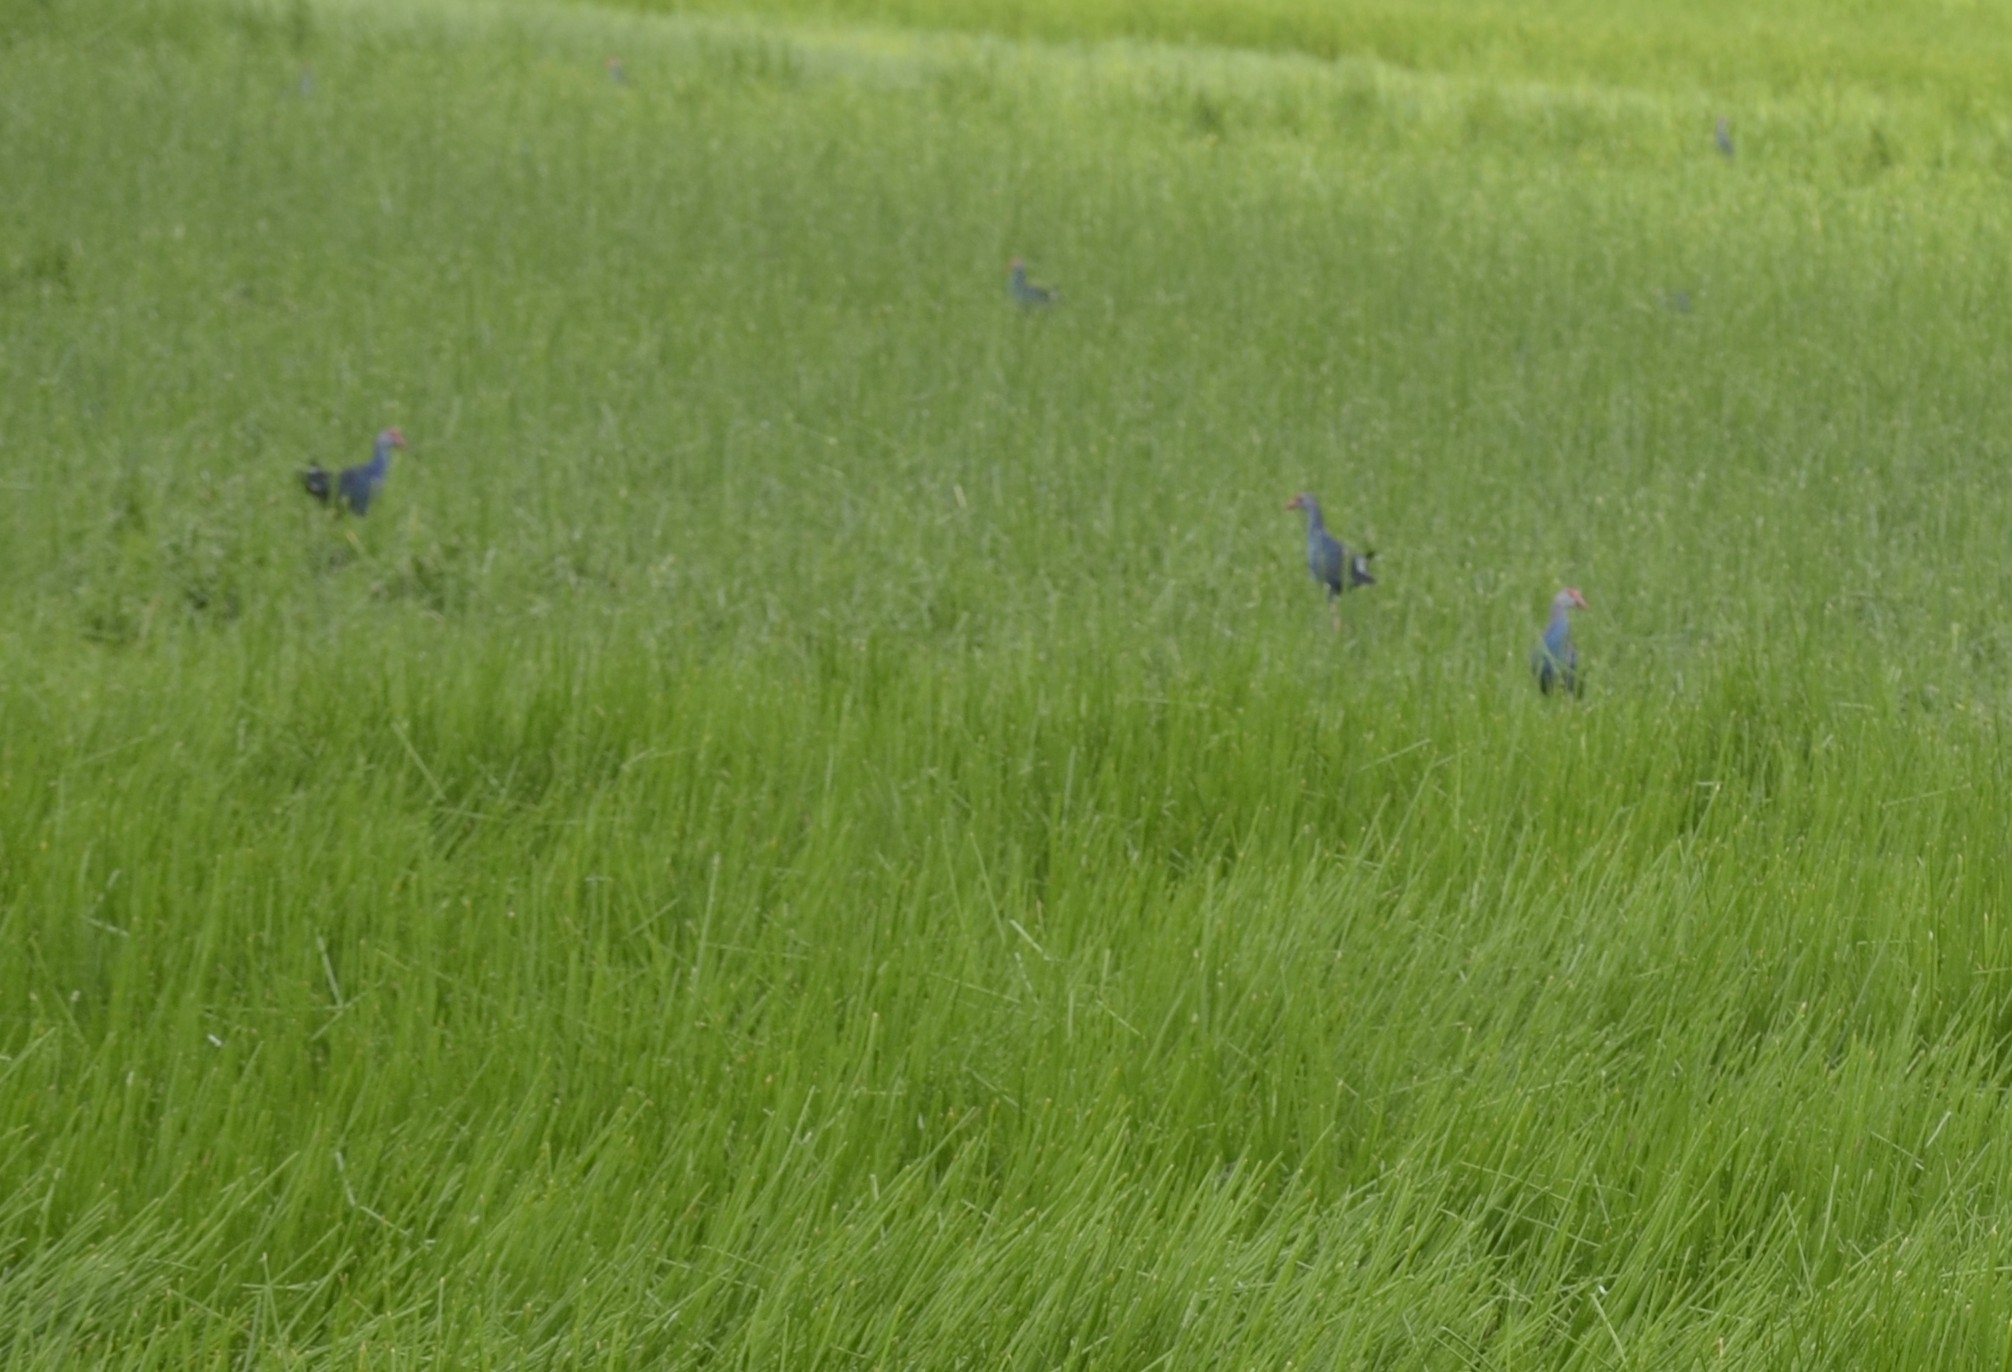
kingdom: Animalia
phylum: Chordata
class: Aves
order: Gruiformes
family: Rallidae
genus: Porphyrio
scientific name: Porphyrio porphyrio
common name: Purple swamphen
